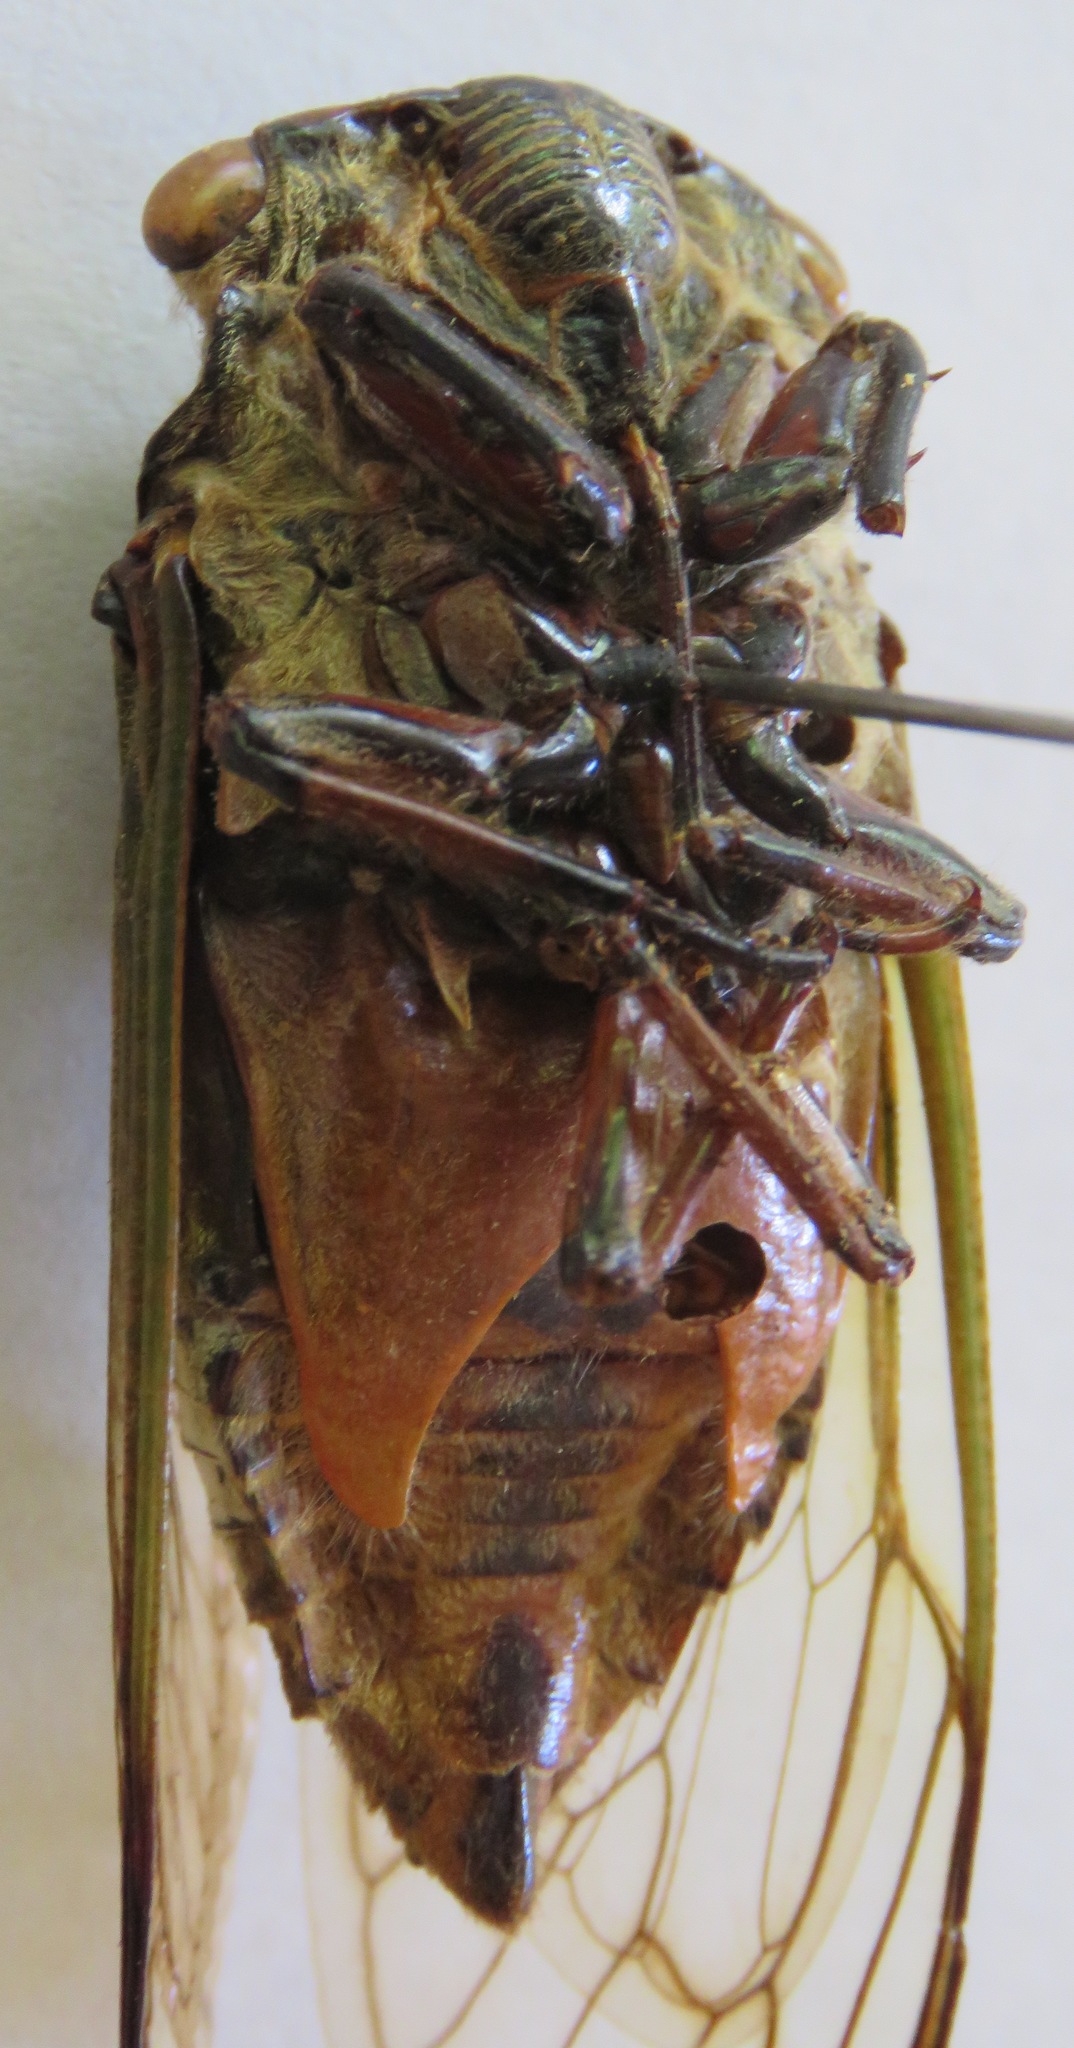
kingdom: Animalia
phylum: Arthropoda
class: Insecta
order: Hemiptera
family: Cicadidae
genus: Cryptotympana
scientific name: Cryptotympana acuta
